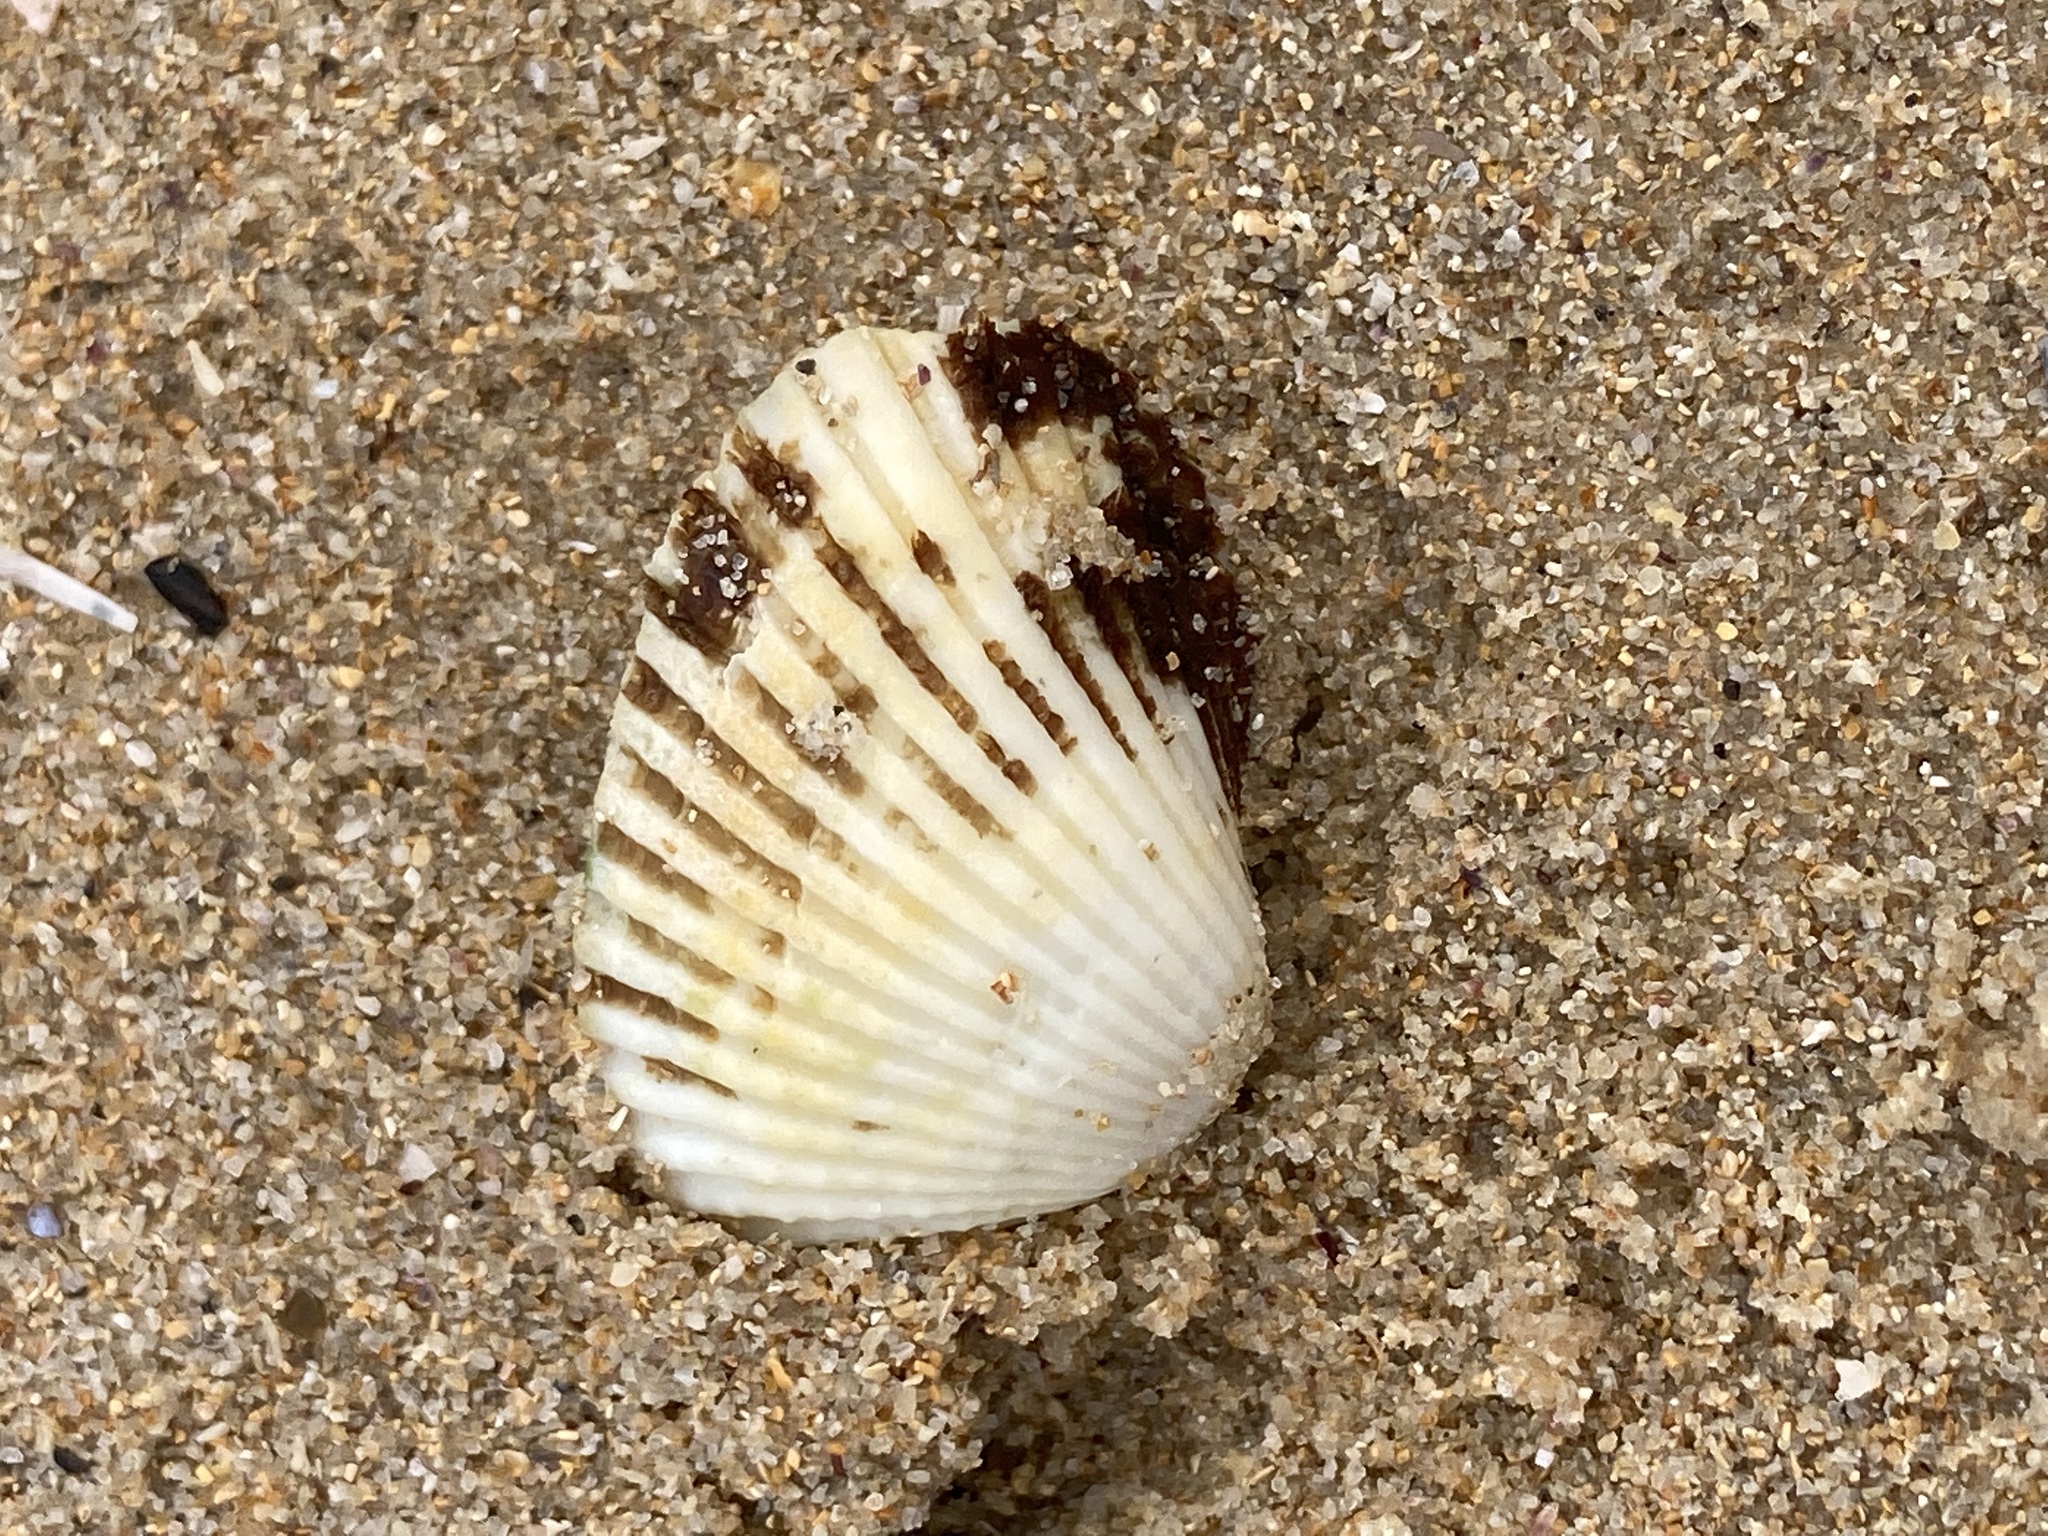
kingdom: Animalia
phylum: Mollusca
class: Bivalvia
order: Arcida
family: Arcidae
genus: Anadara
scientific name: Anadara trapezia
